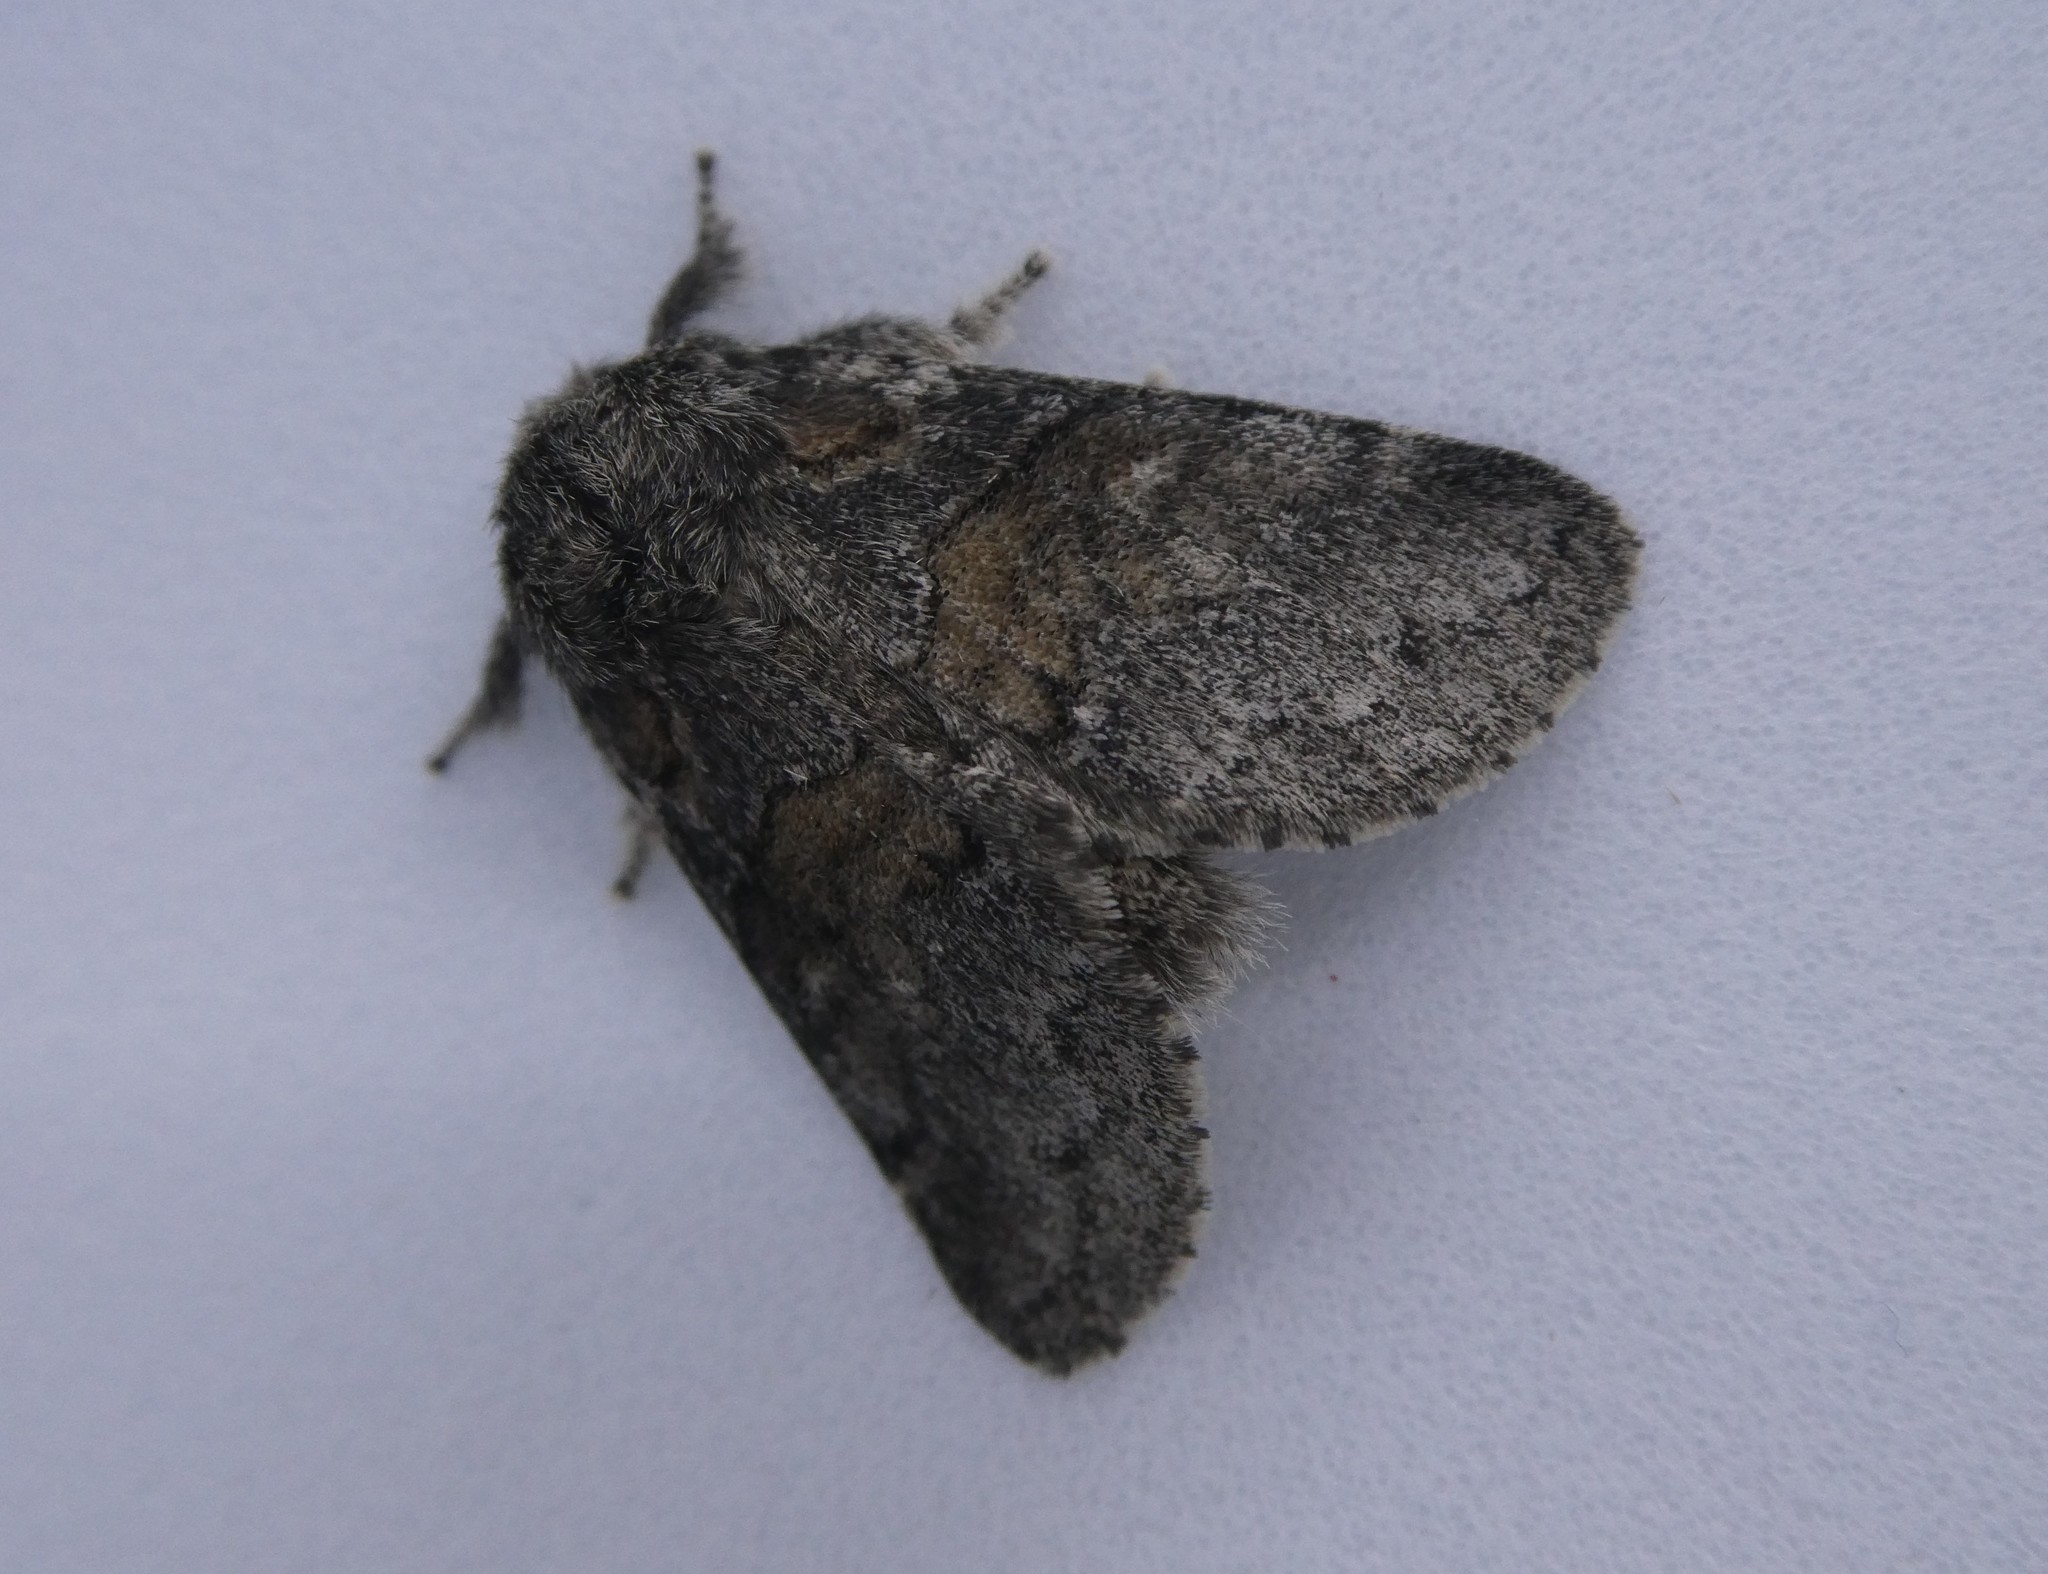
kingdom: Animalia
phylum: Arthropoda
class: Insecta
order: Lepidoptera
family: Notodontidae
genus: Gluphisia
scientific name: Gluphisia septentrionis
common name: Common gluphisia
